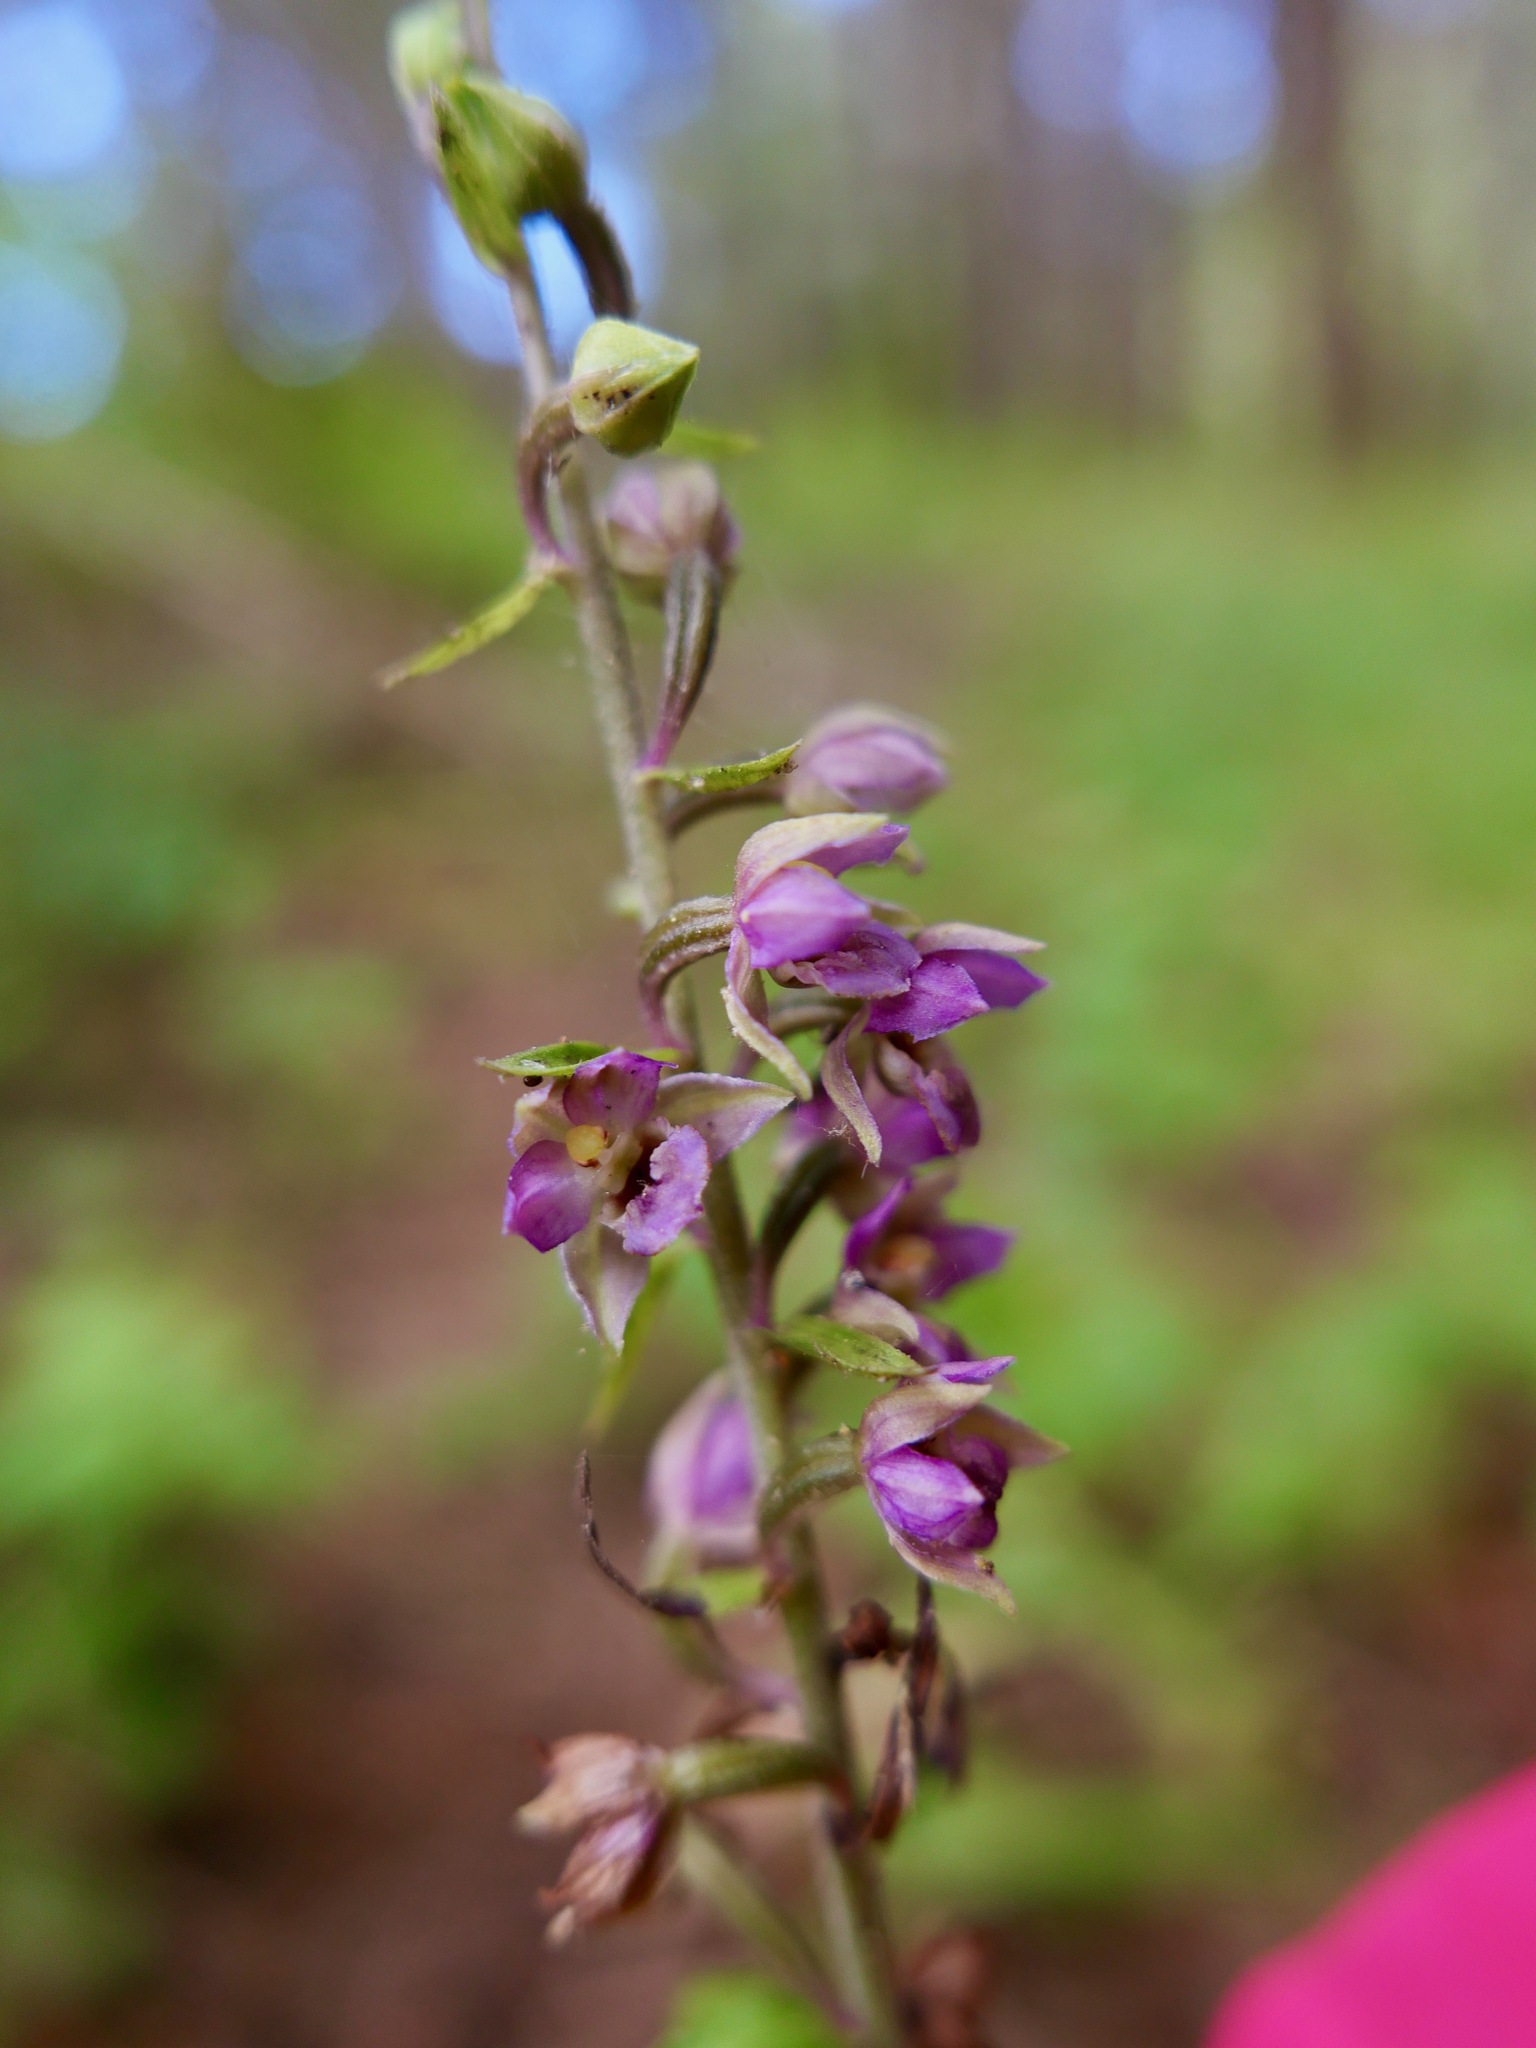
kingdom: Plantae
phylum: Tracheophyta
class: Liliopsida
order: Asparagales
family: Orchidaceae
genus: Epipactis
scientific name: Epipactis helleborine
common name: Broad-leaved helleborine
